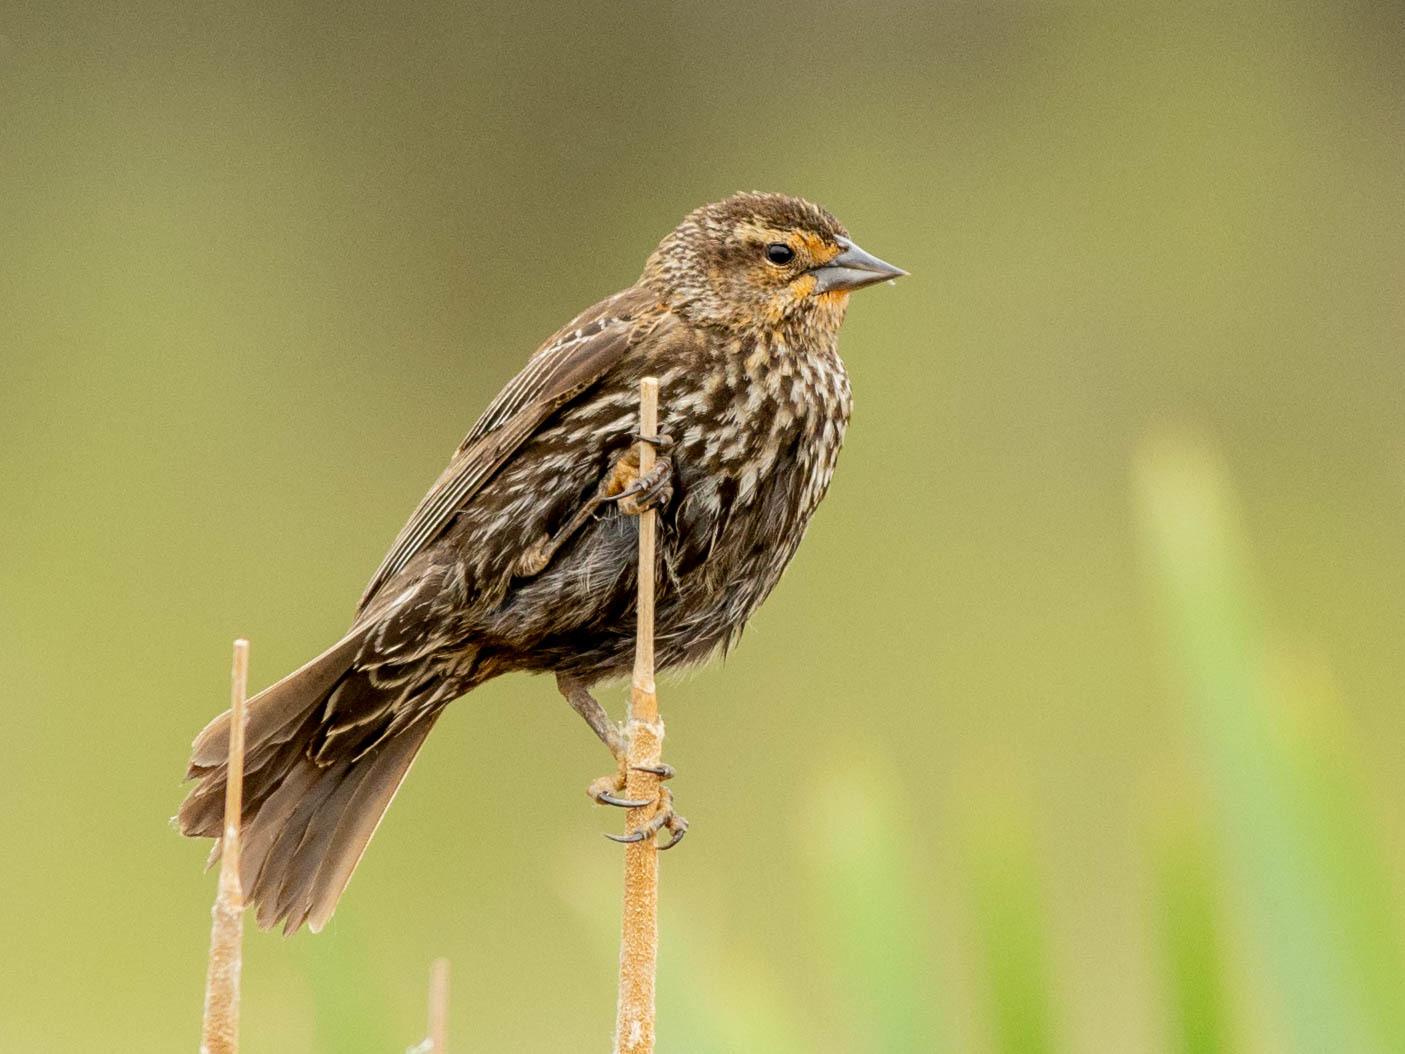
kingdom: Animalia
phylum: Chordata
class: Aves
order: Passeriformes
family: Icteridae
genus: Agelaius
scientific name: Agelaius phoeniceus
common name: Red-winged blackbird
